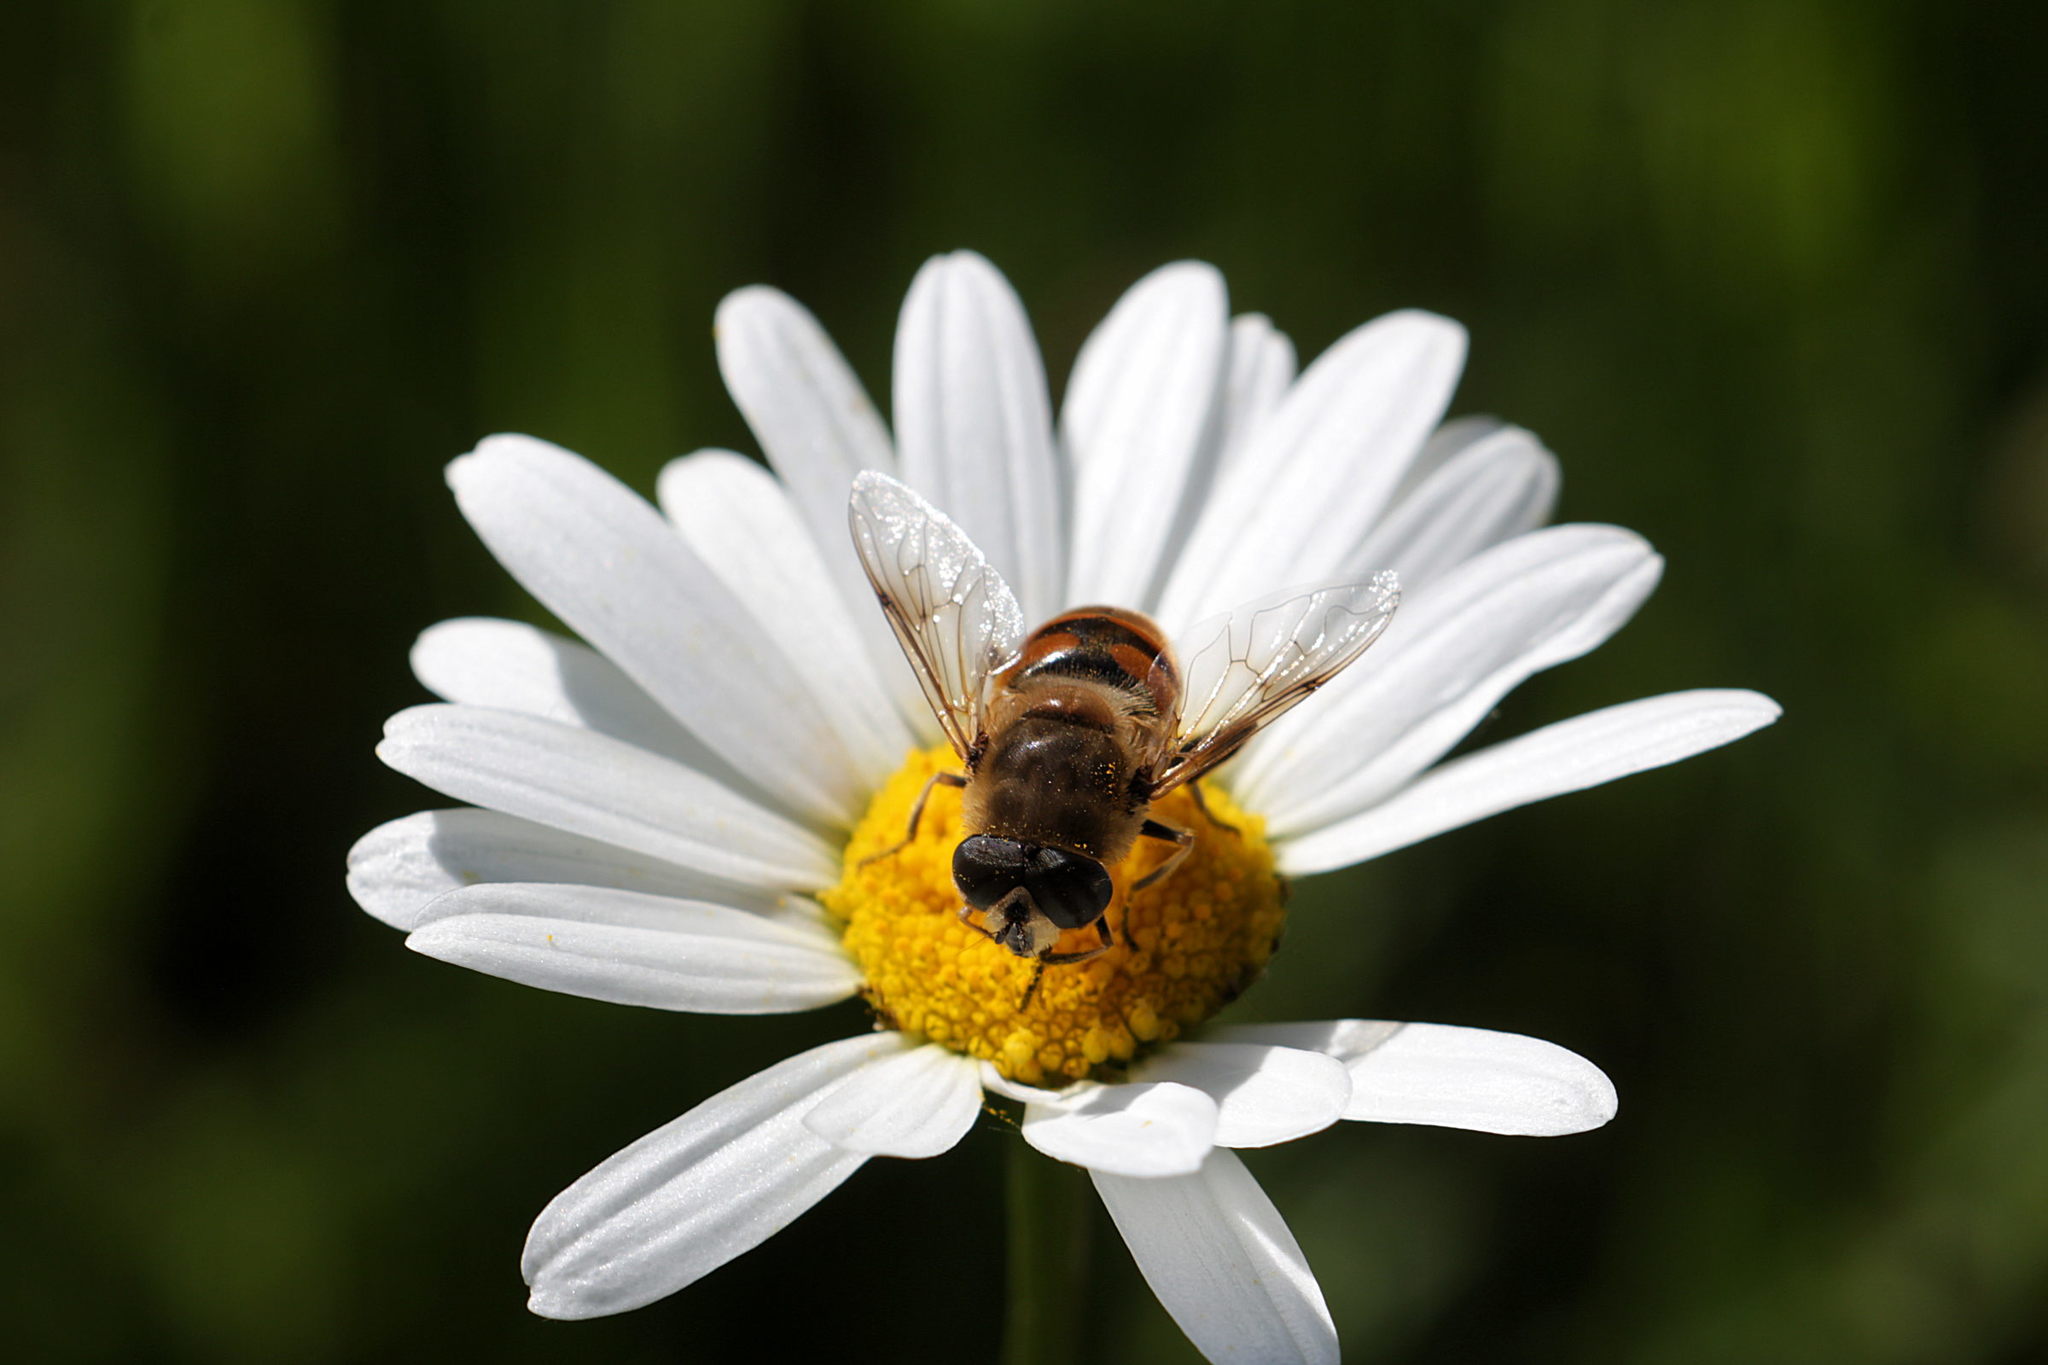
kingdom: Animalia
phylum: Arthropoda
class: Insecta
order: Diptera
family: Syrphidae
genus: Eristalis
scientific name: Eristalis tenax
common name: Drone fly
